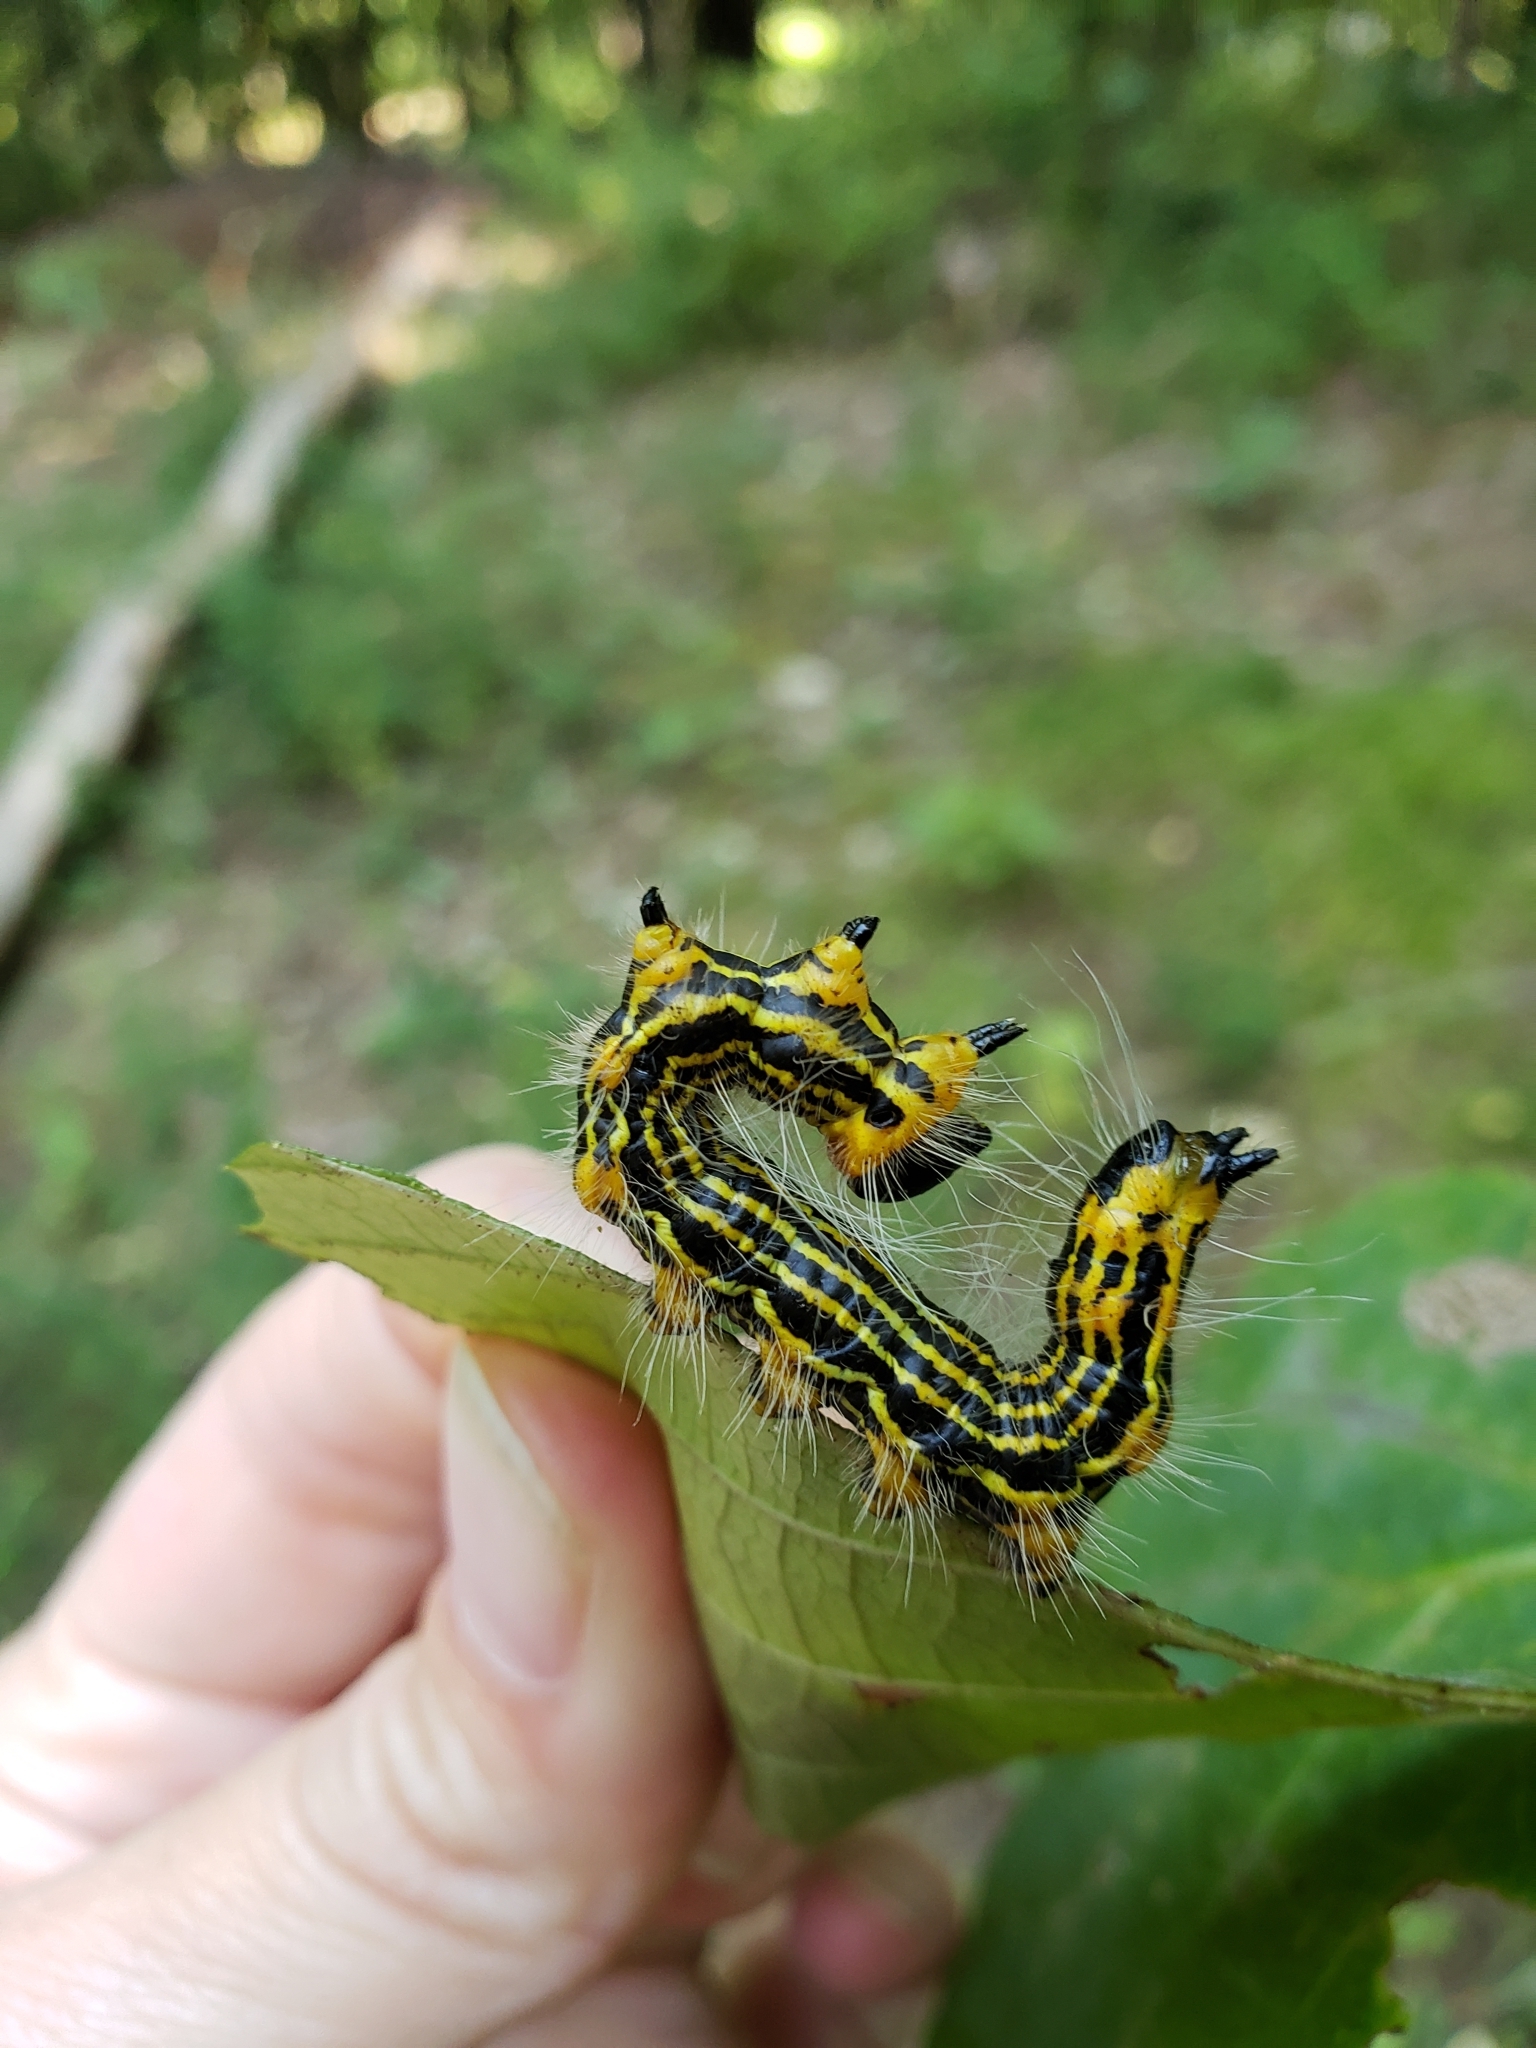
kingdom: Animalia
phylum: Arthropoda
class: Insecta
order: Lepidoptera
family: Notodontidae
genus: Datana
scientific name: Datana drexelii
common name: Drexel's datana
